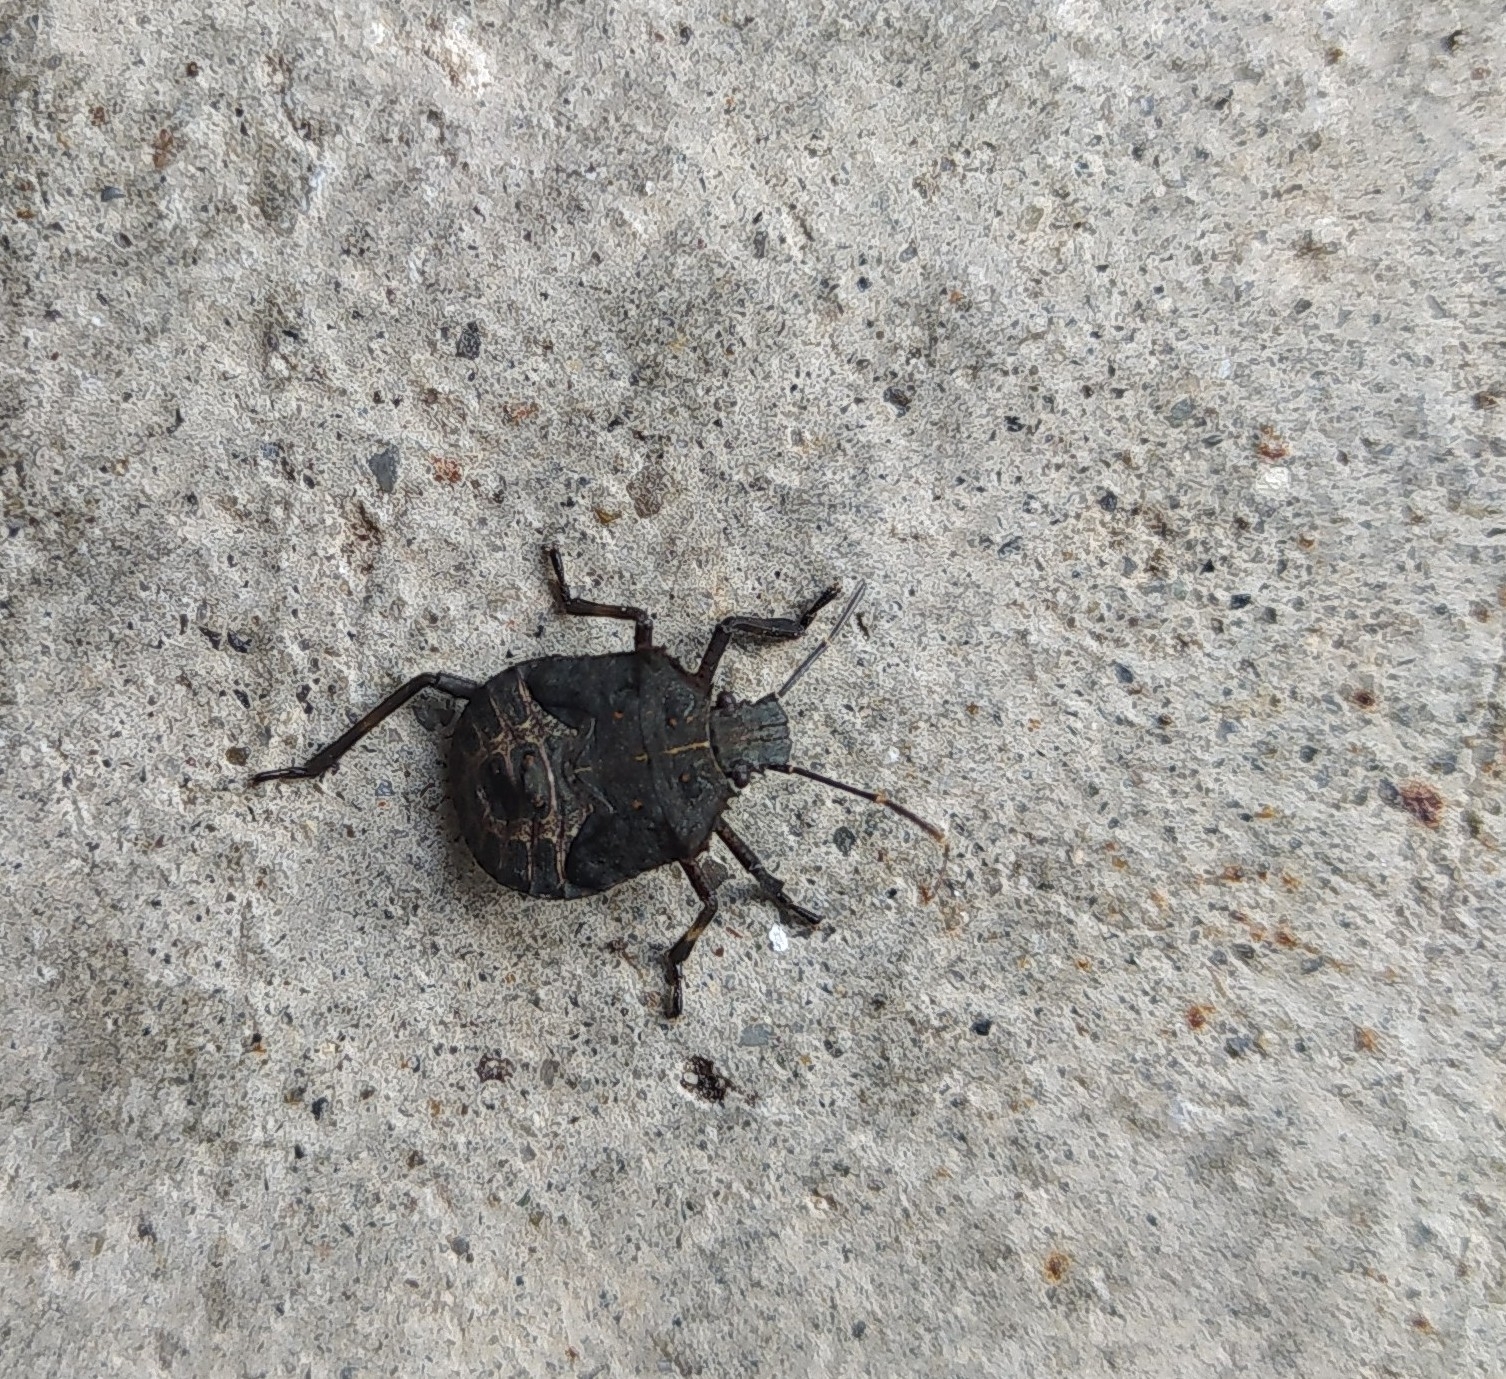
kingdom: Animalia
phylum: Arthropoda
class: Insecta
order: Hemiptera
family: Pentatomidae
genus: Halyomorpha
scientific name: Halyomorpha halys
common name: Brown marmorated stink bug
